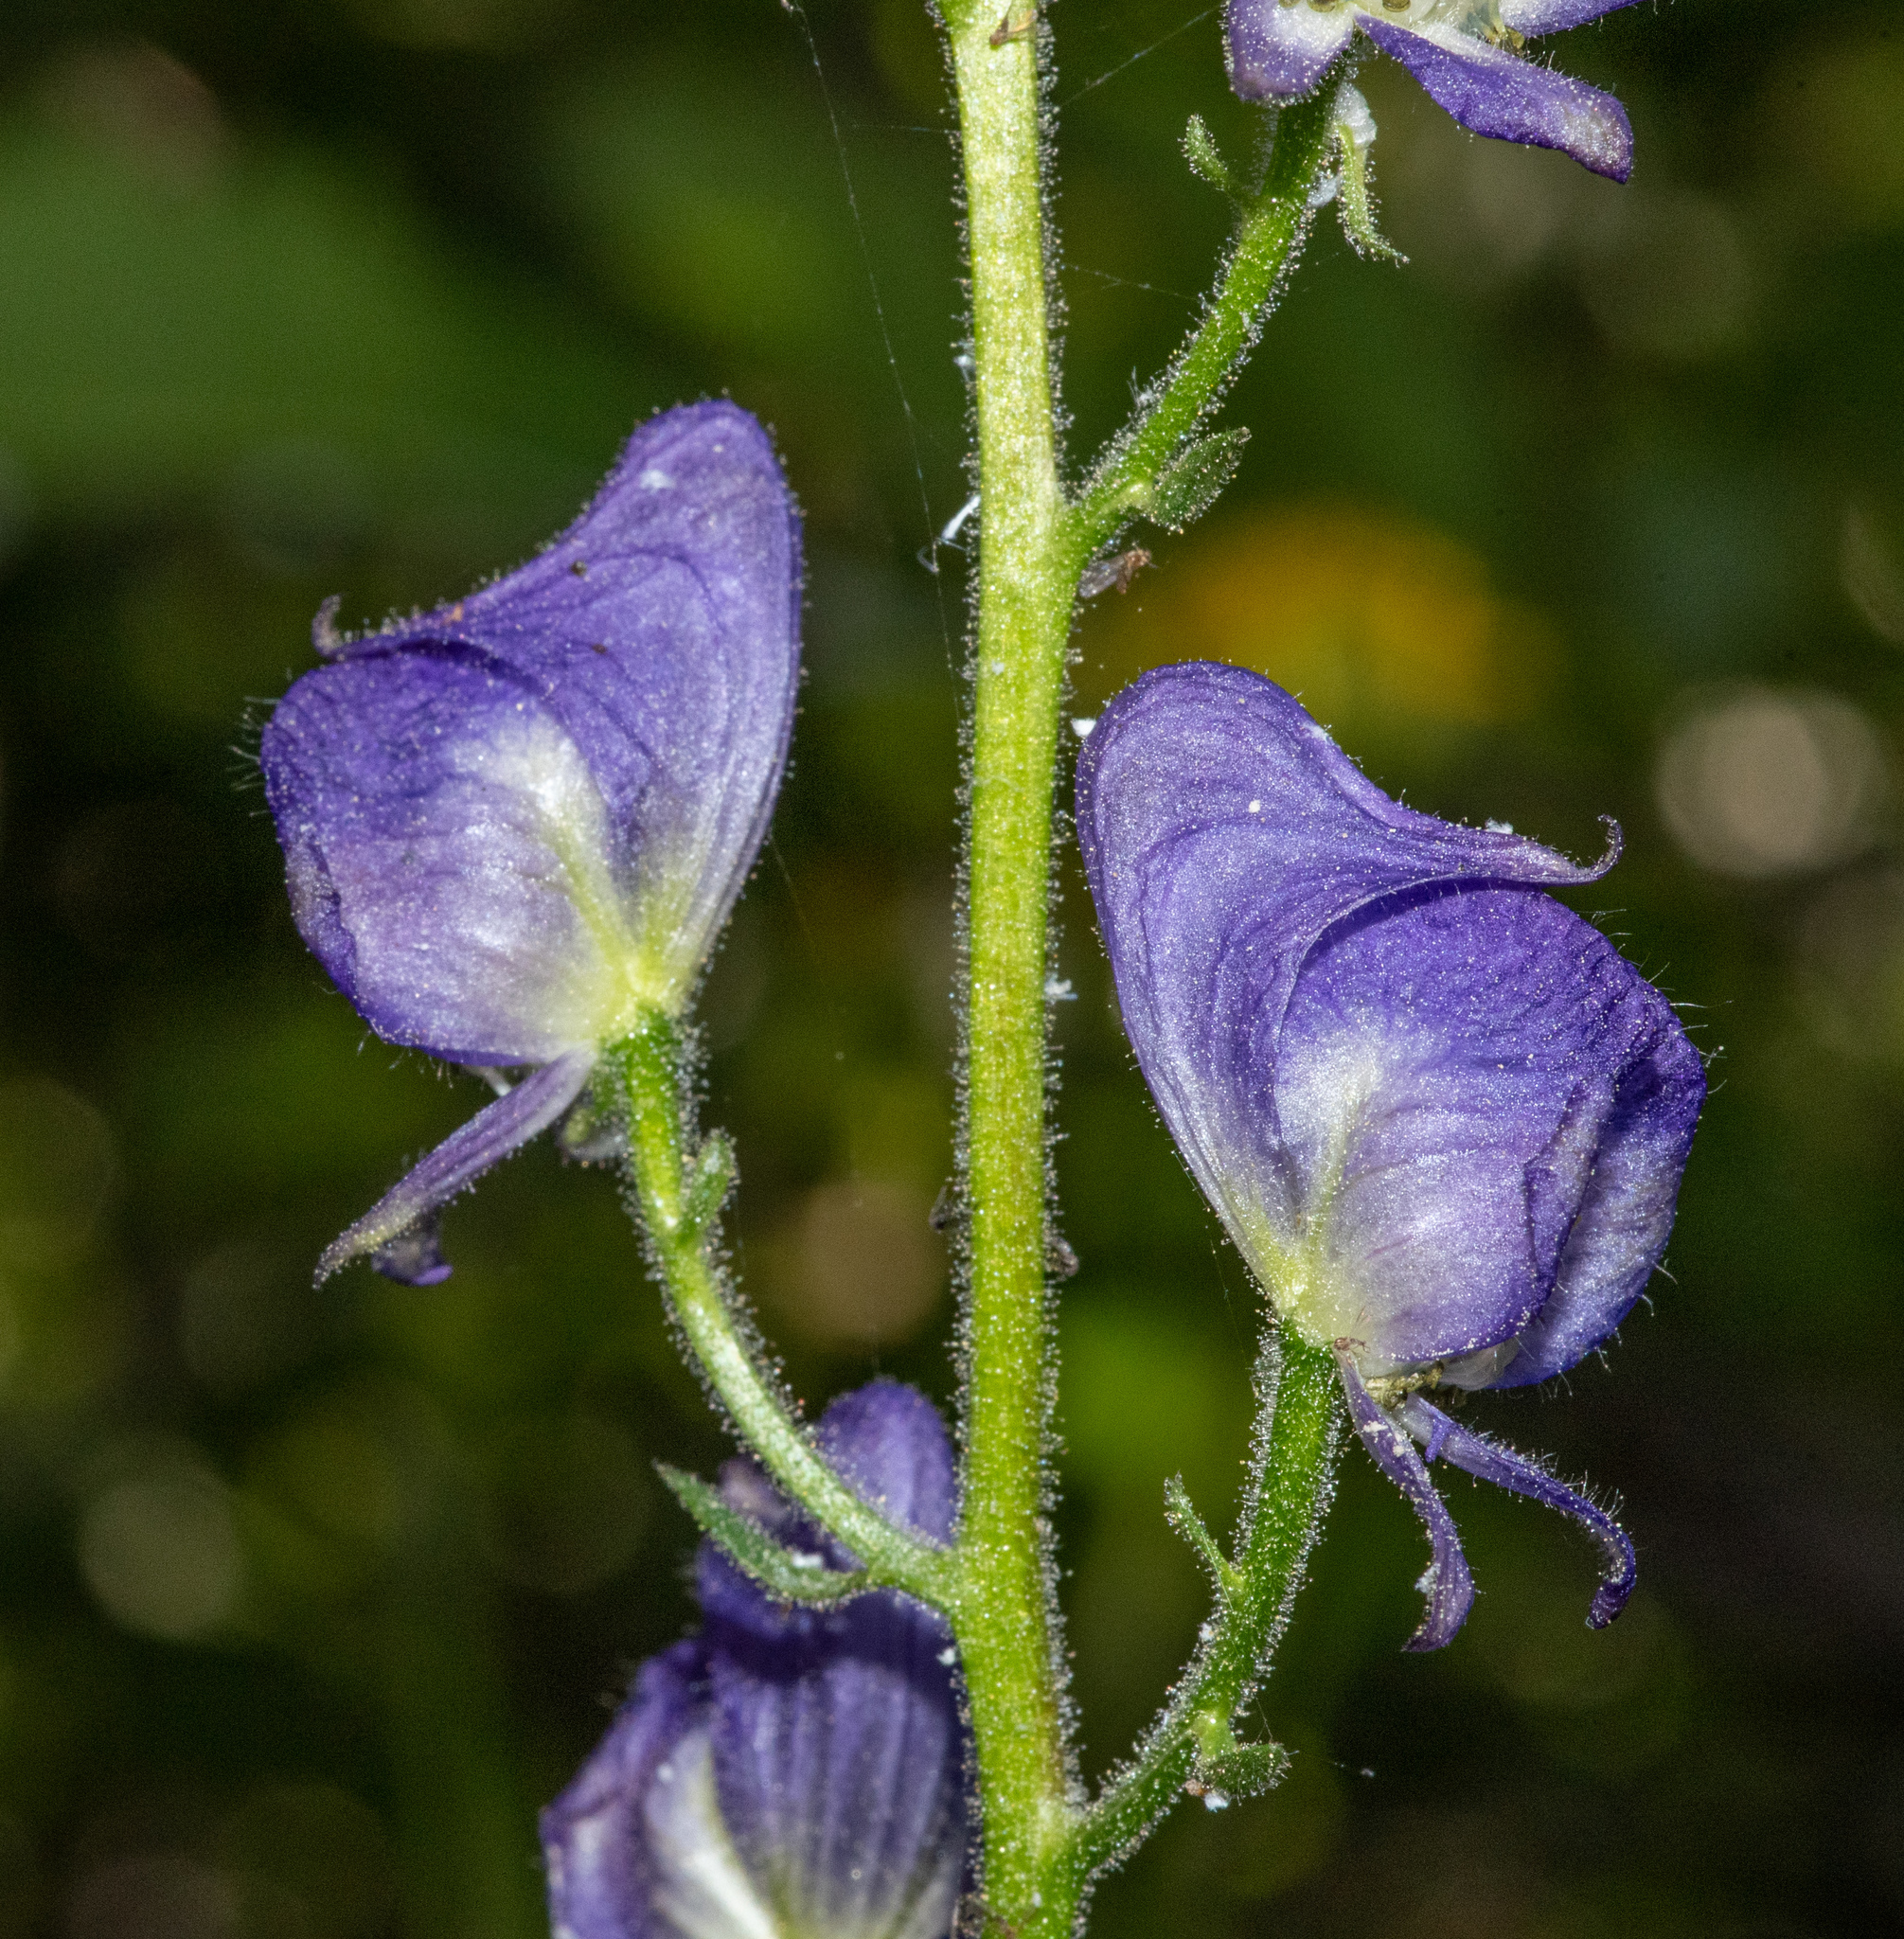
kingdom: Plantae
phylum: Tracheophyta
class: Magnoliopsida
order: Ranunculales
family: Ranunculaceae
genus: Aconitum
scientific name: Aconitum columbianum
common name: Columbia aconite
